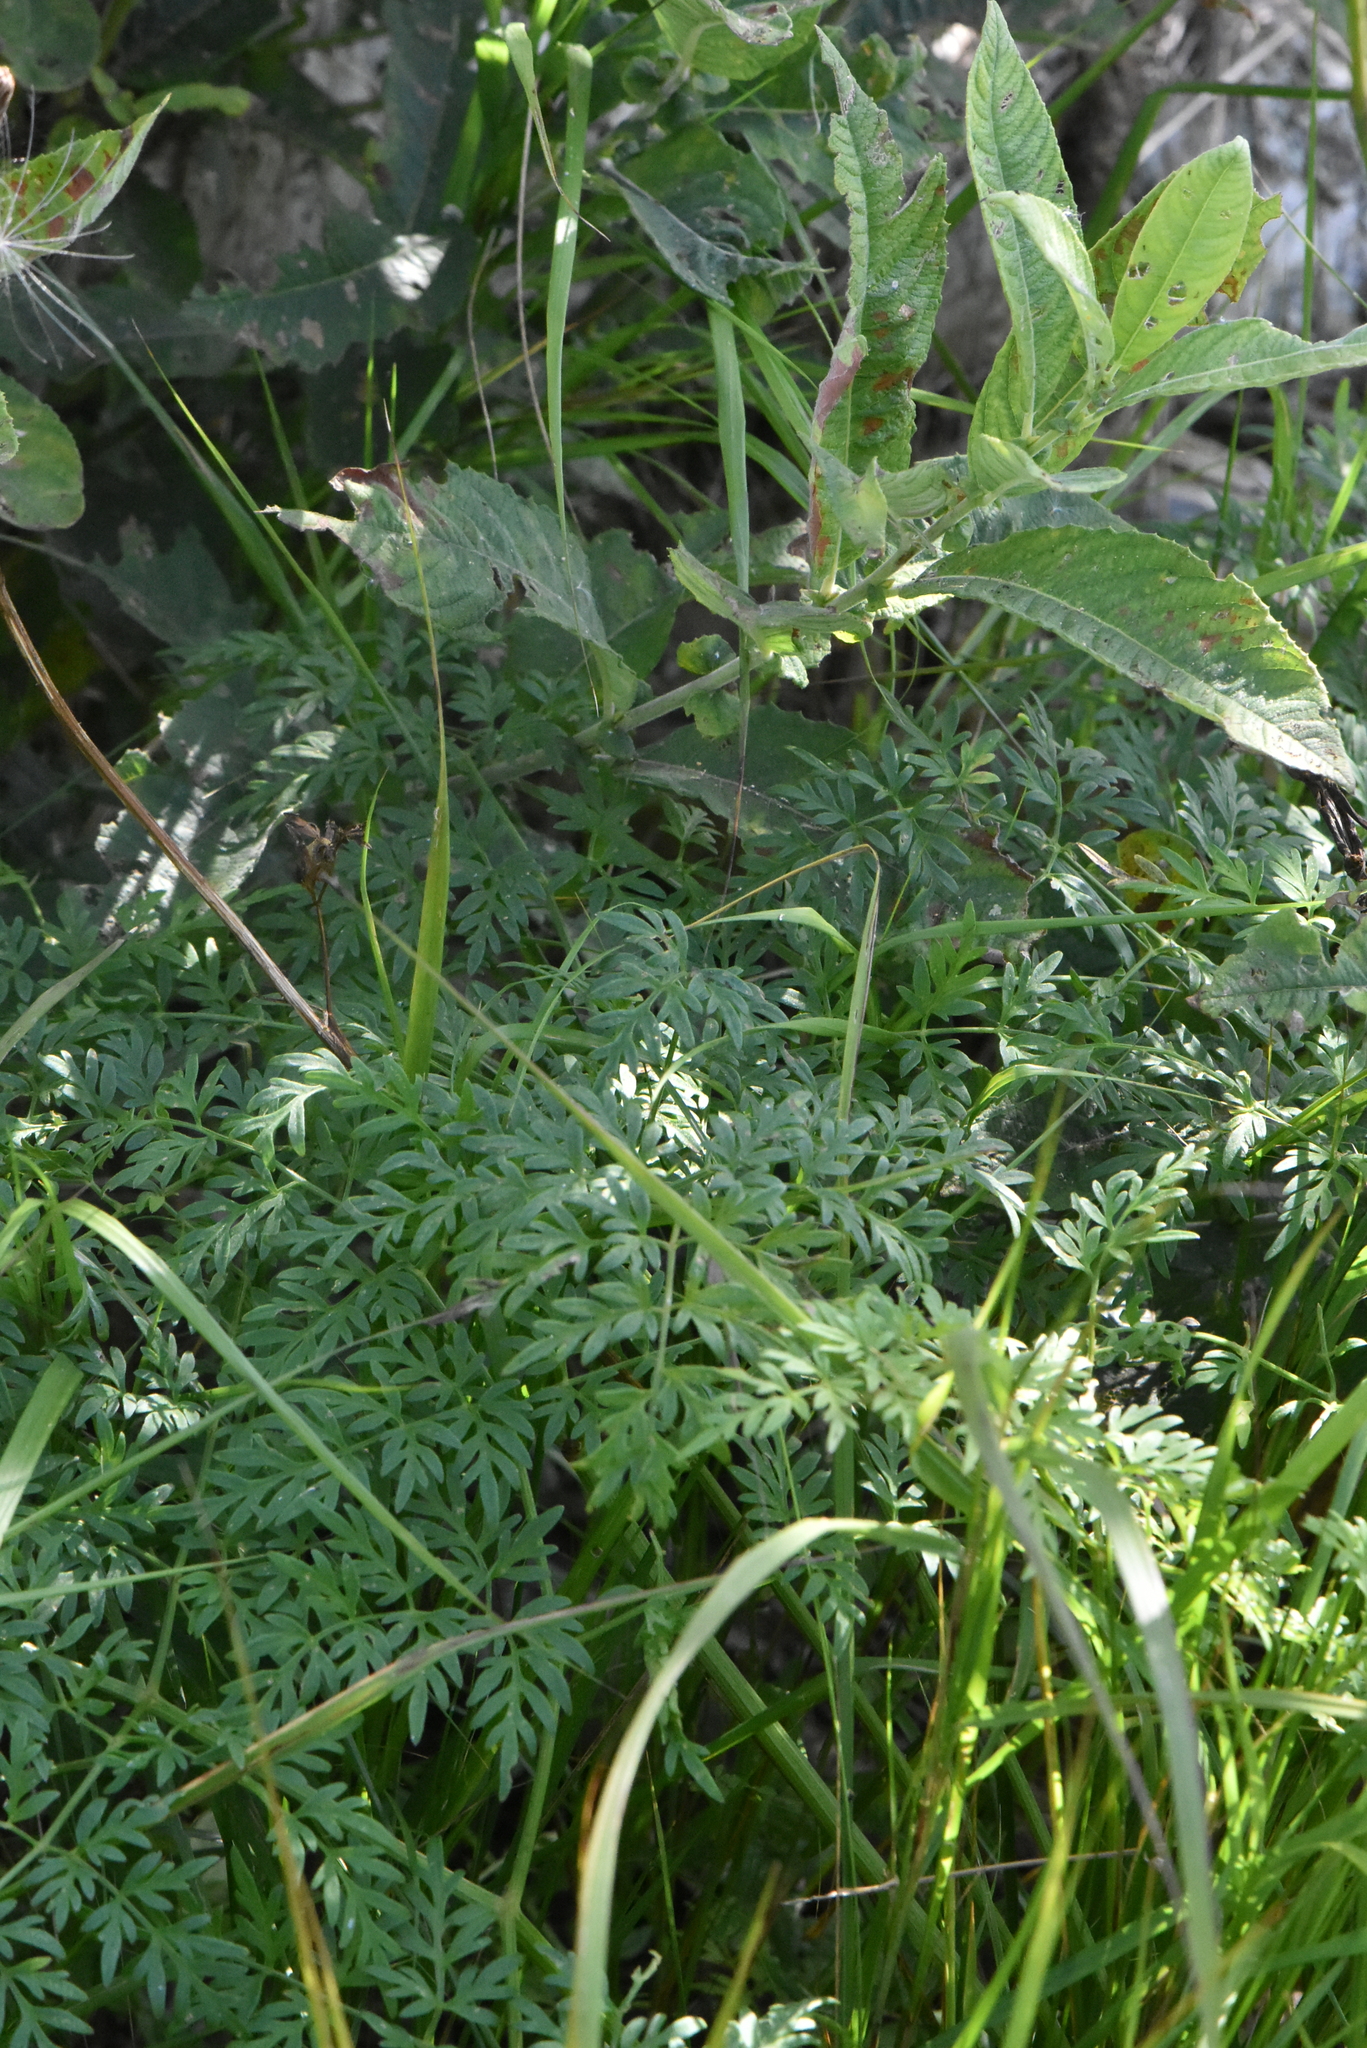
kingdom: Plantae
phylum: Tracheophyta
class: Magnoliopsida
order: Apiales
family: Apiaceae
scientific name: Apiaceae
